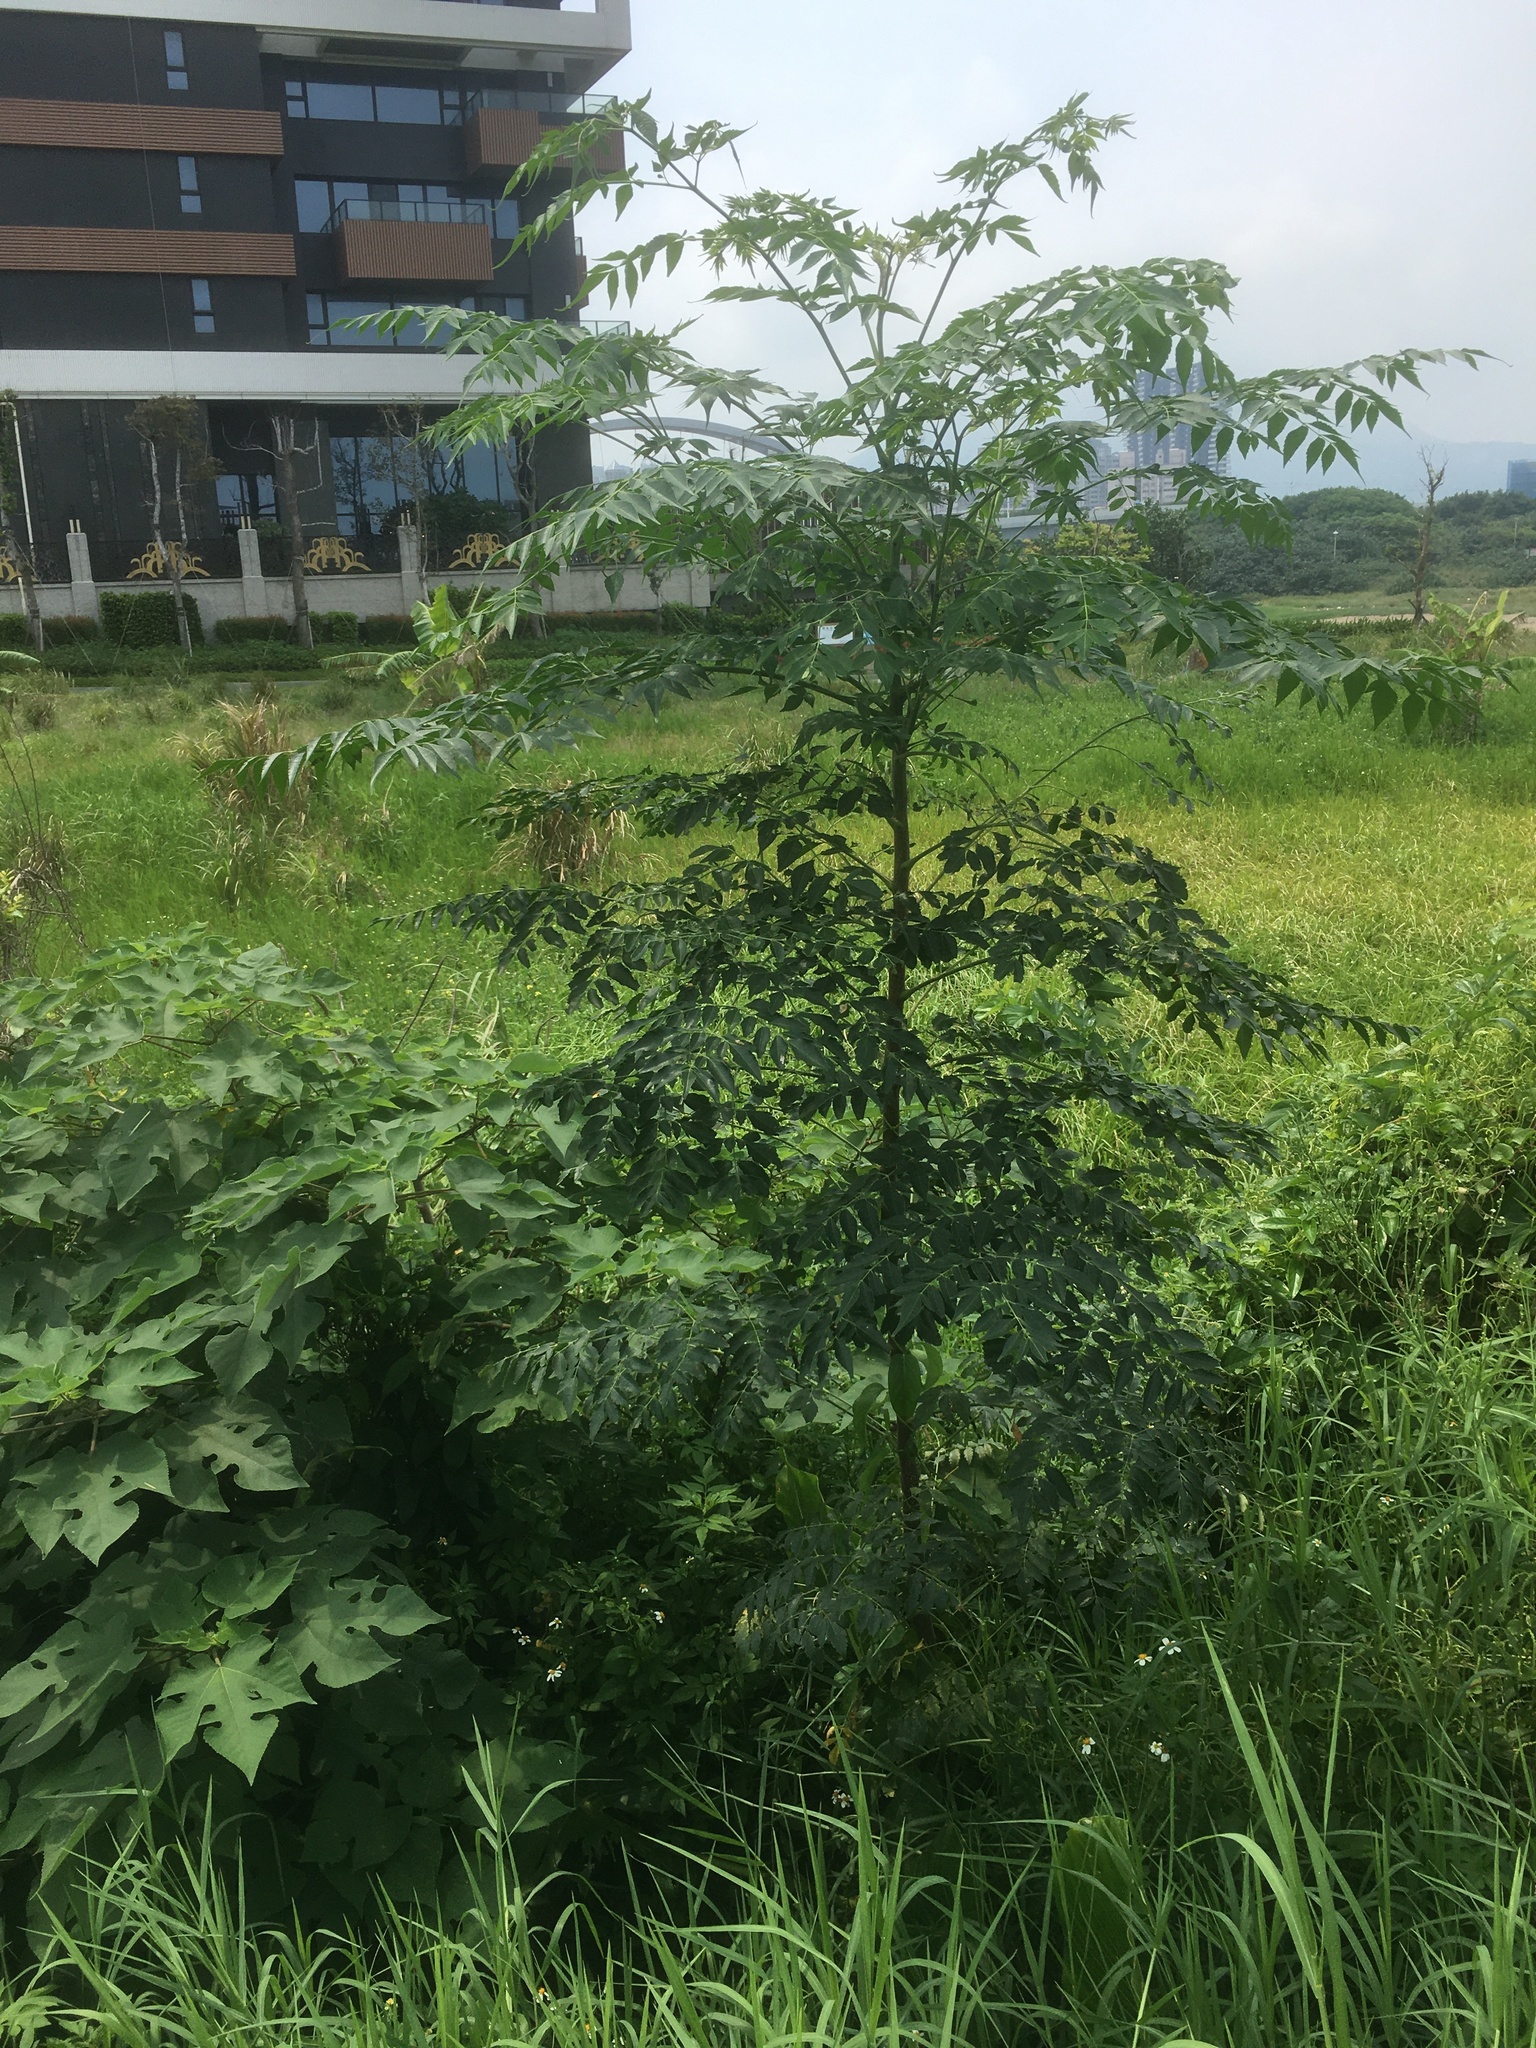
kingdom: Plantae
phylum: Tracheophyta
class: Magnoliopsida
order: Sapindales
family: Meliaceae
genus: Melia
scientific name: Melia azedarach
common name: Chinaberrytree
